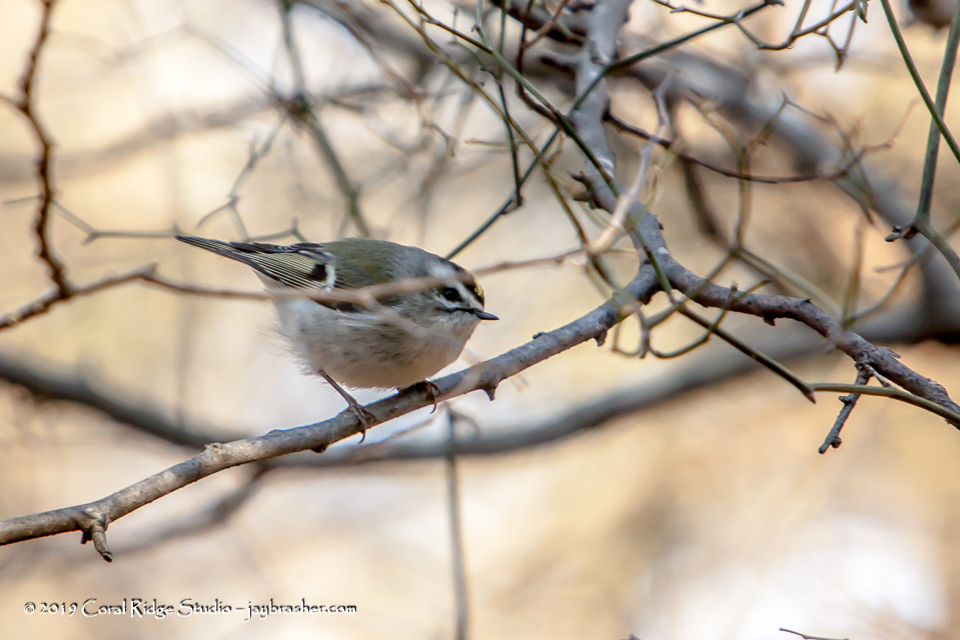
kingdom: Animalia
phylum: Chordata
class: Aves
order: Passeriformes
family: Regulidae
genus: Regulus
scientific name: Regulus satrapa
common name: Golden-crowned kinglet
